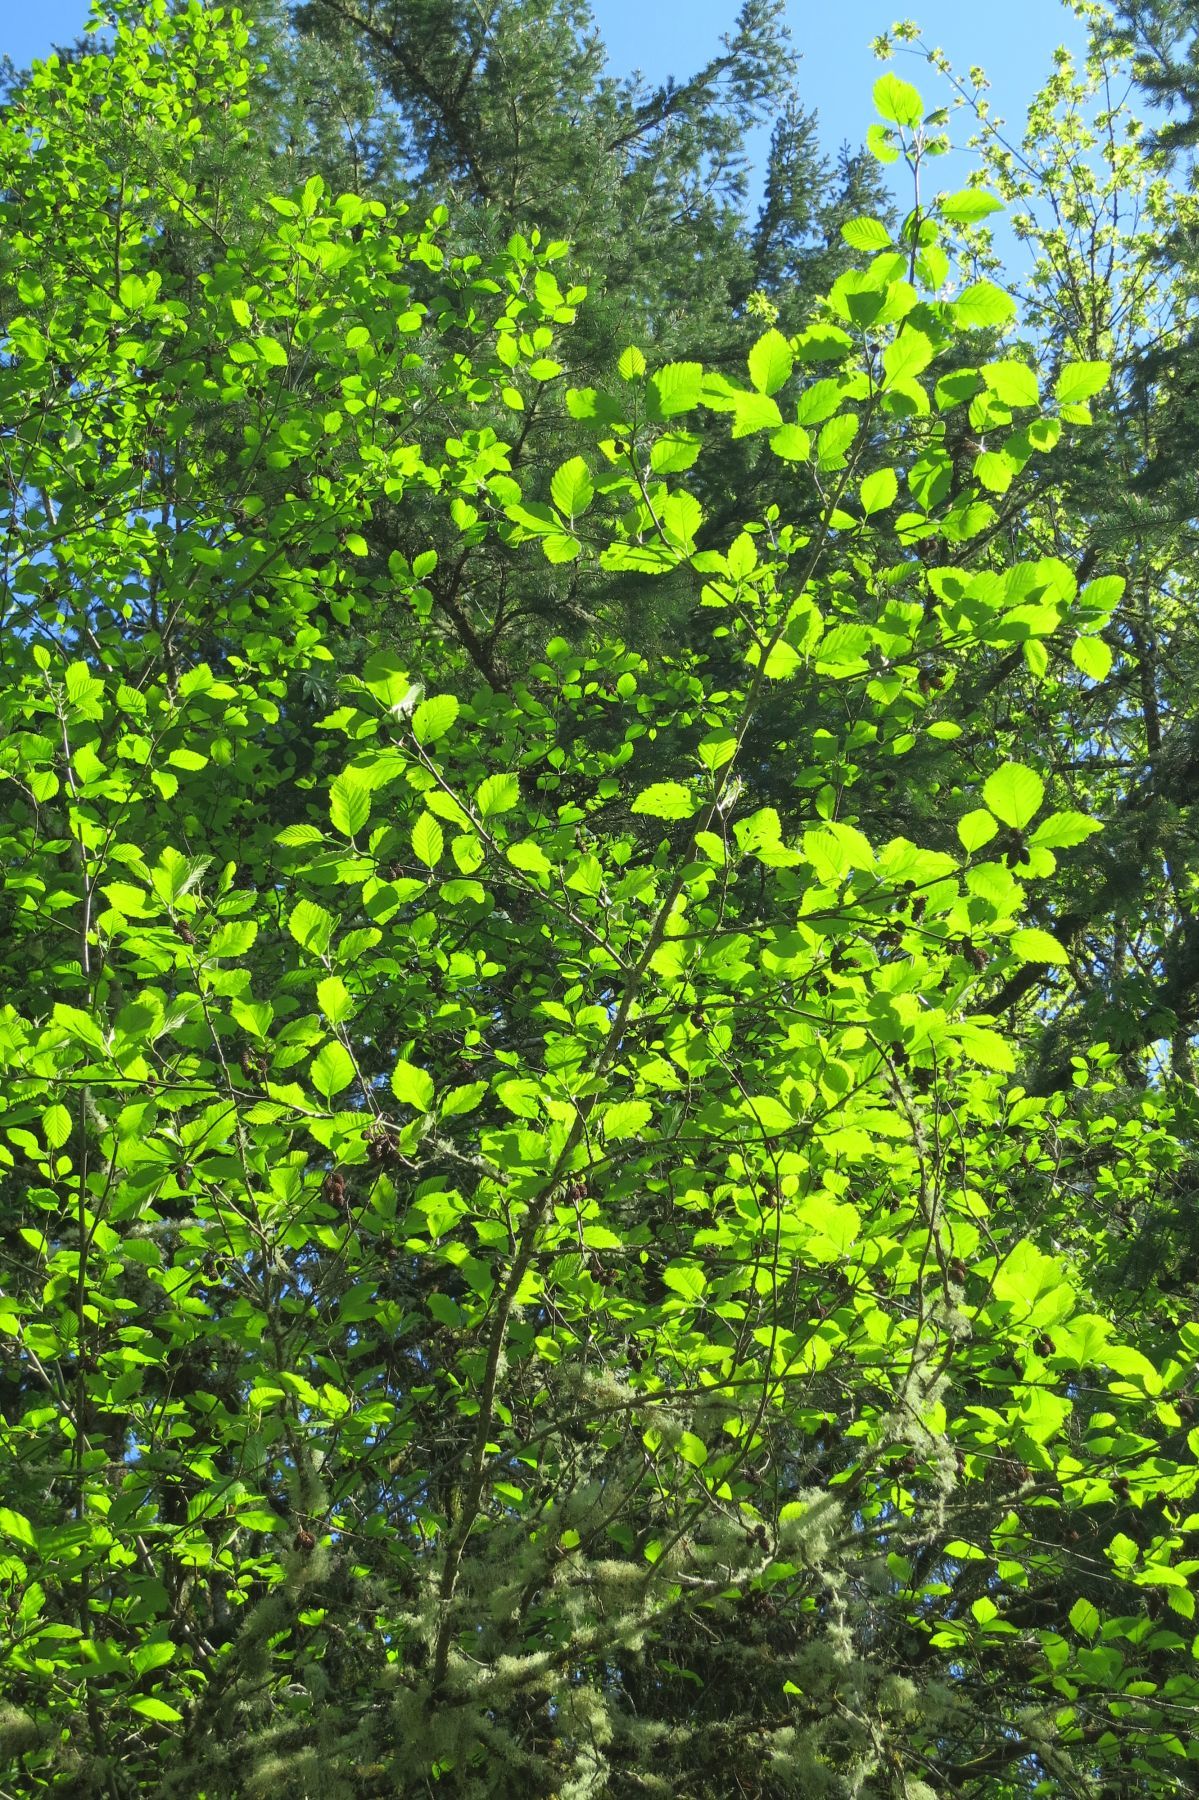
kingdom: Plantae
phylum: Tracheophyta
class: Magnoliopsida
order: Fagales
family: Betulaceae
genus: Alnus
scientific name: Alnus rubra
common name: Red alder
